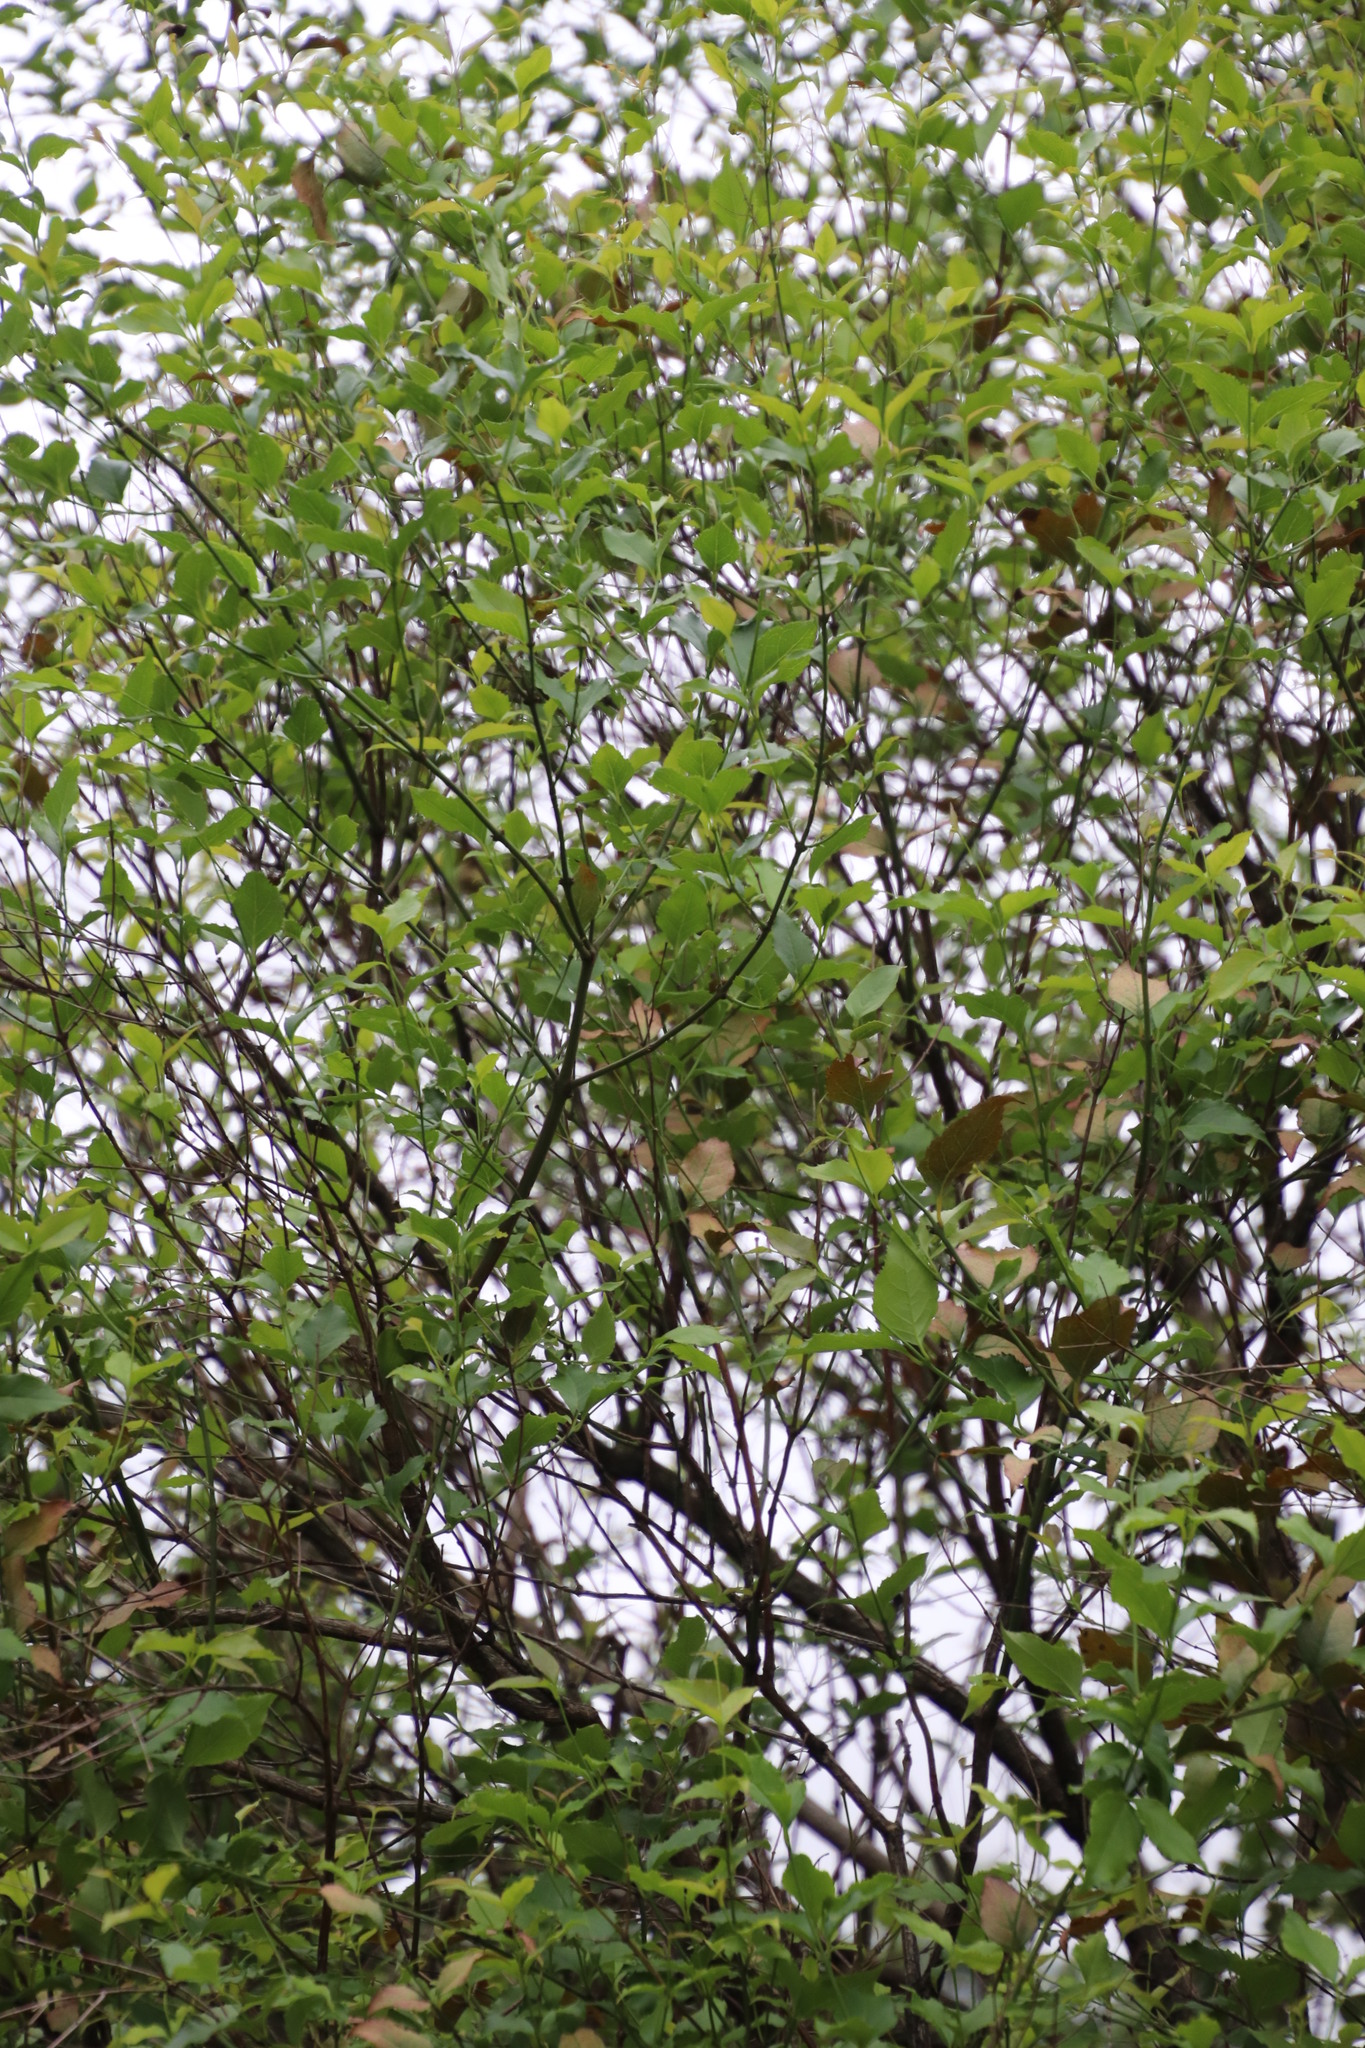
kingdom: Plantae
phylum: Tracheophyta
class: Magnoliopsida
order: Lamiales
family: Stilbaceae
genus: Halleria
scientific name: Halleria lucida
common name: Tree fuschia
